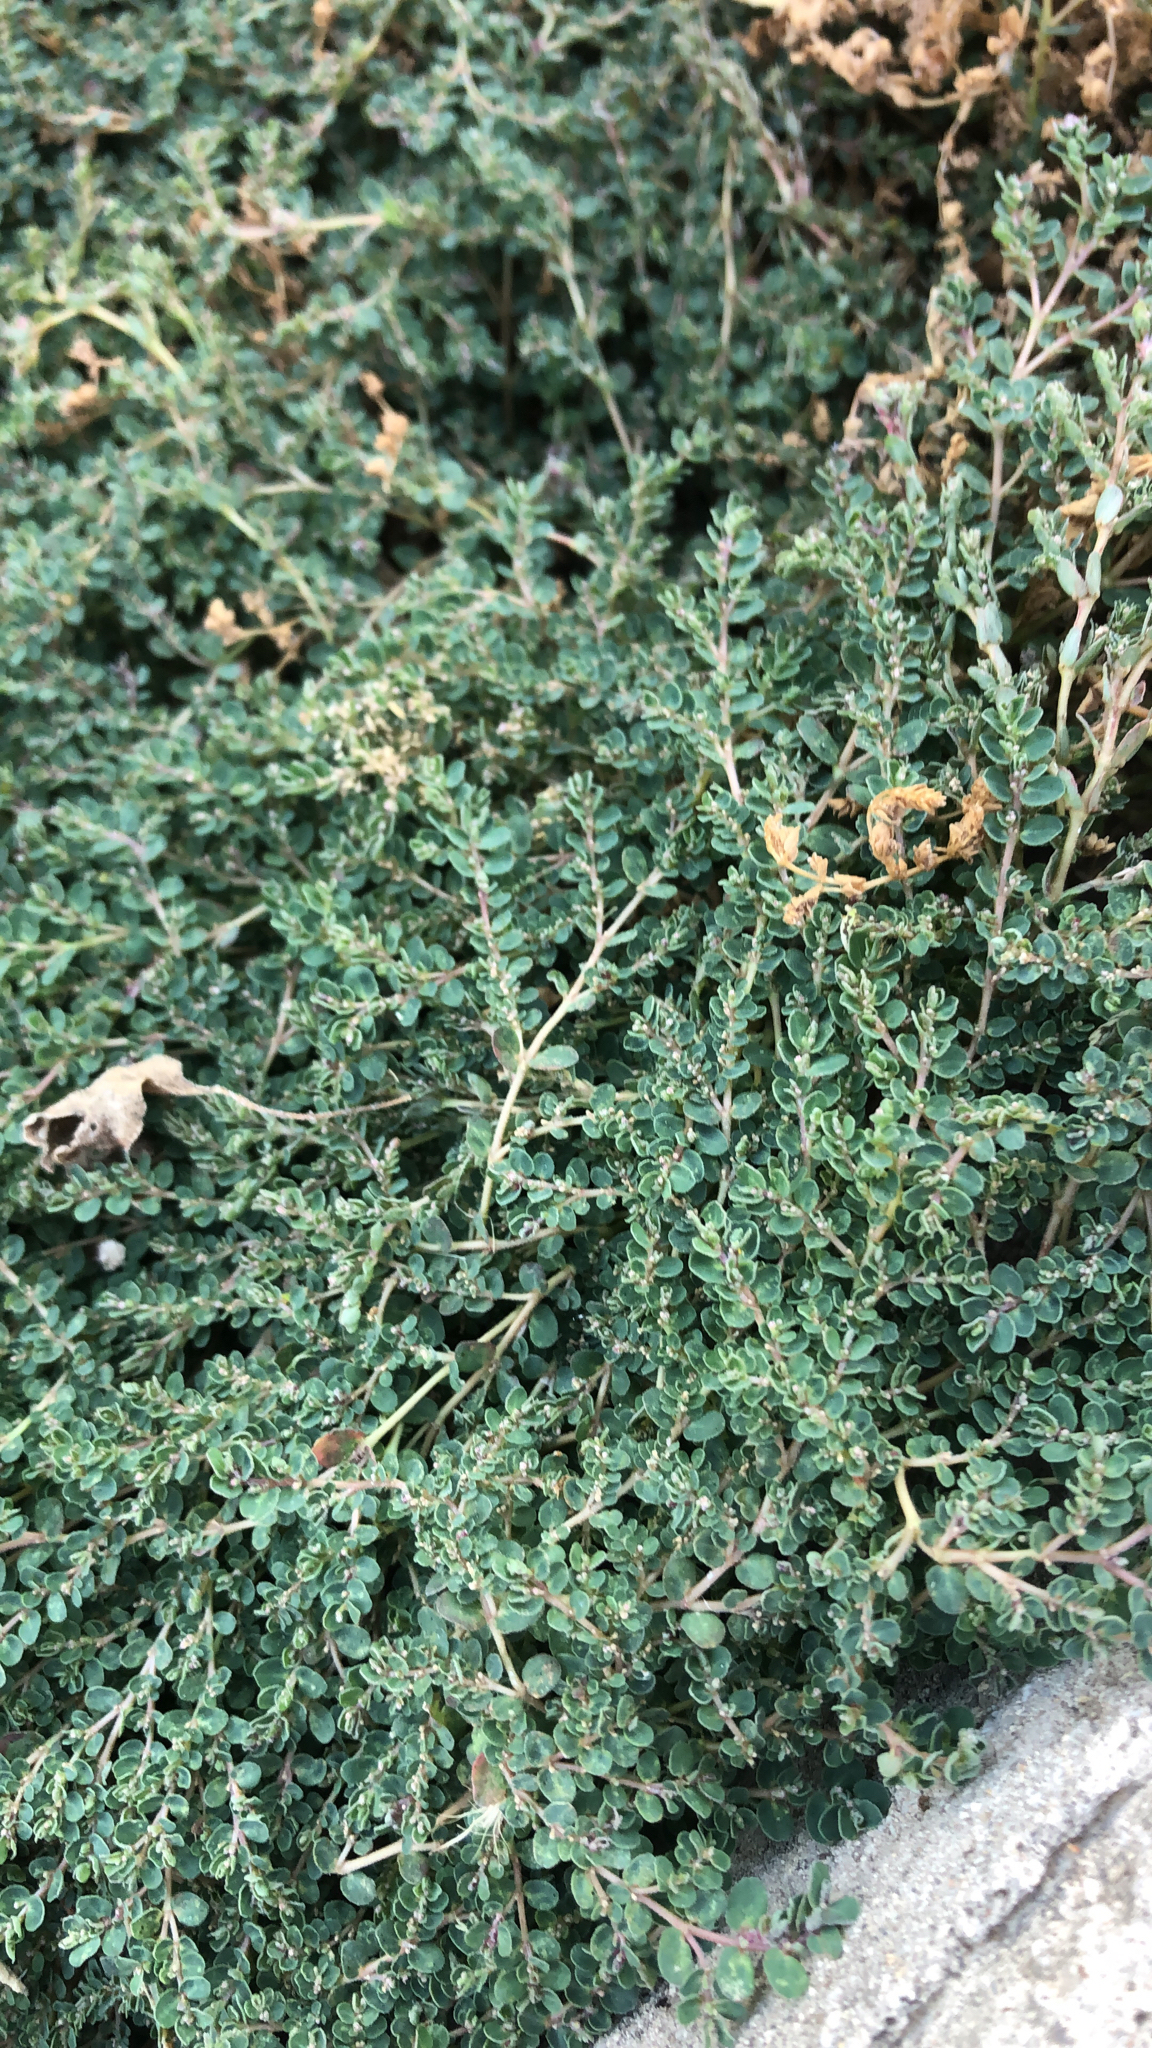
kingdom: Plantae
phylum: Tracheophyta
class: Magnoliopsida
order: Malpighiales
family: Euphorbiaceae
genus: Euphorbia
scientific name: Euphorbia prostrata
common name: Prostrate sandmat
